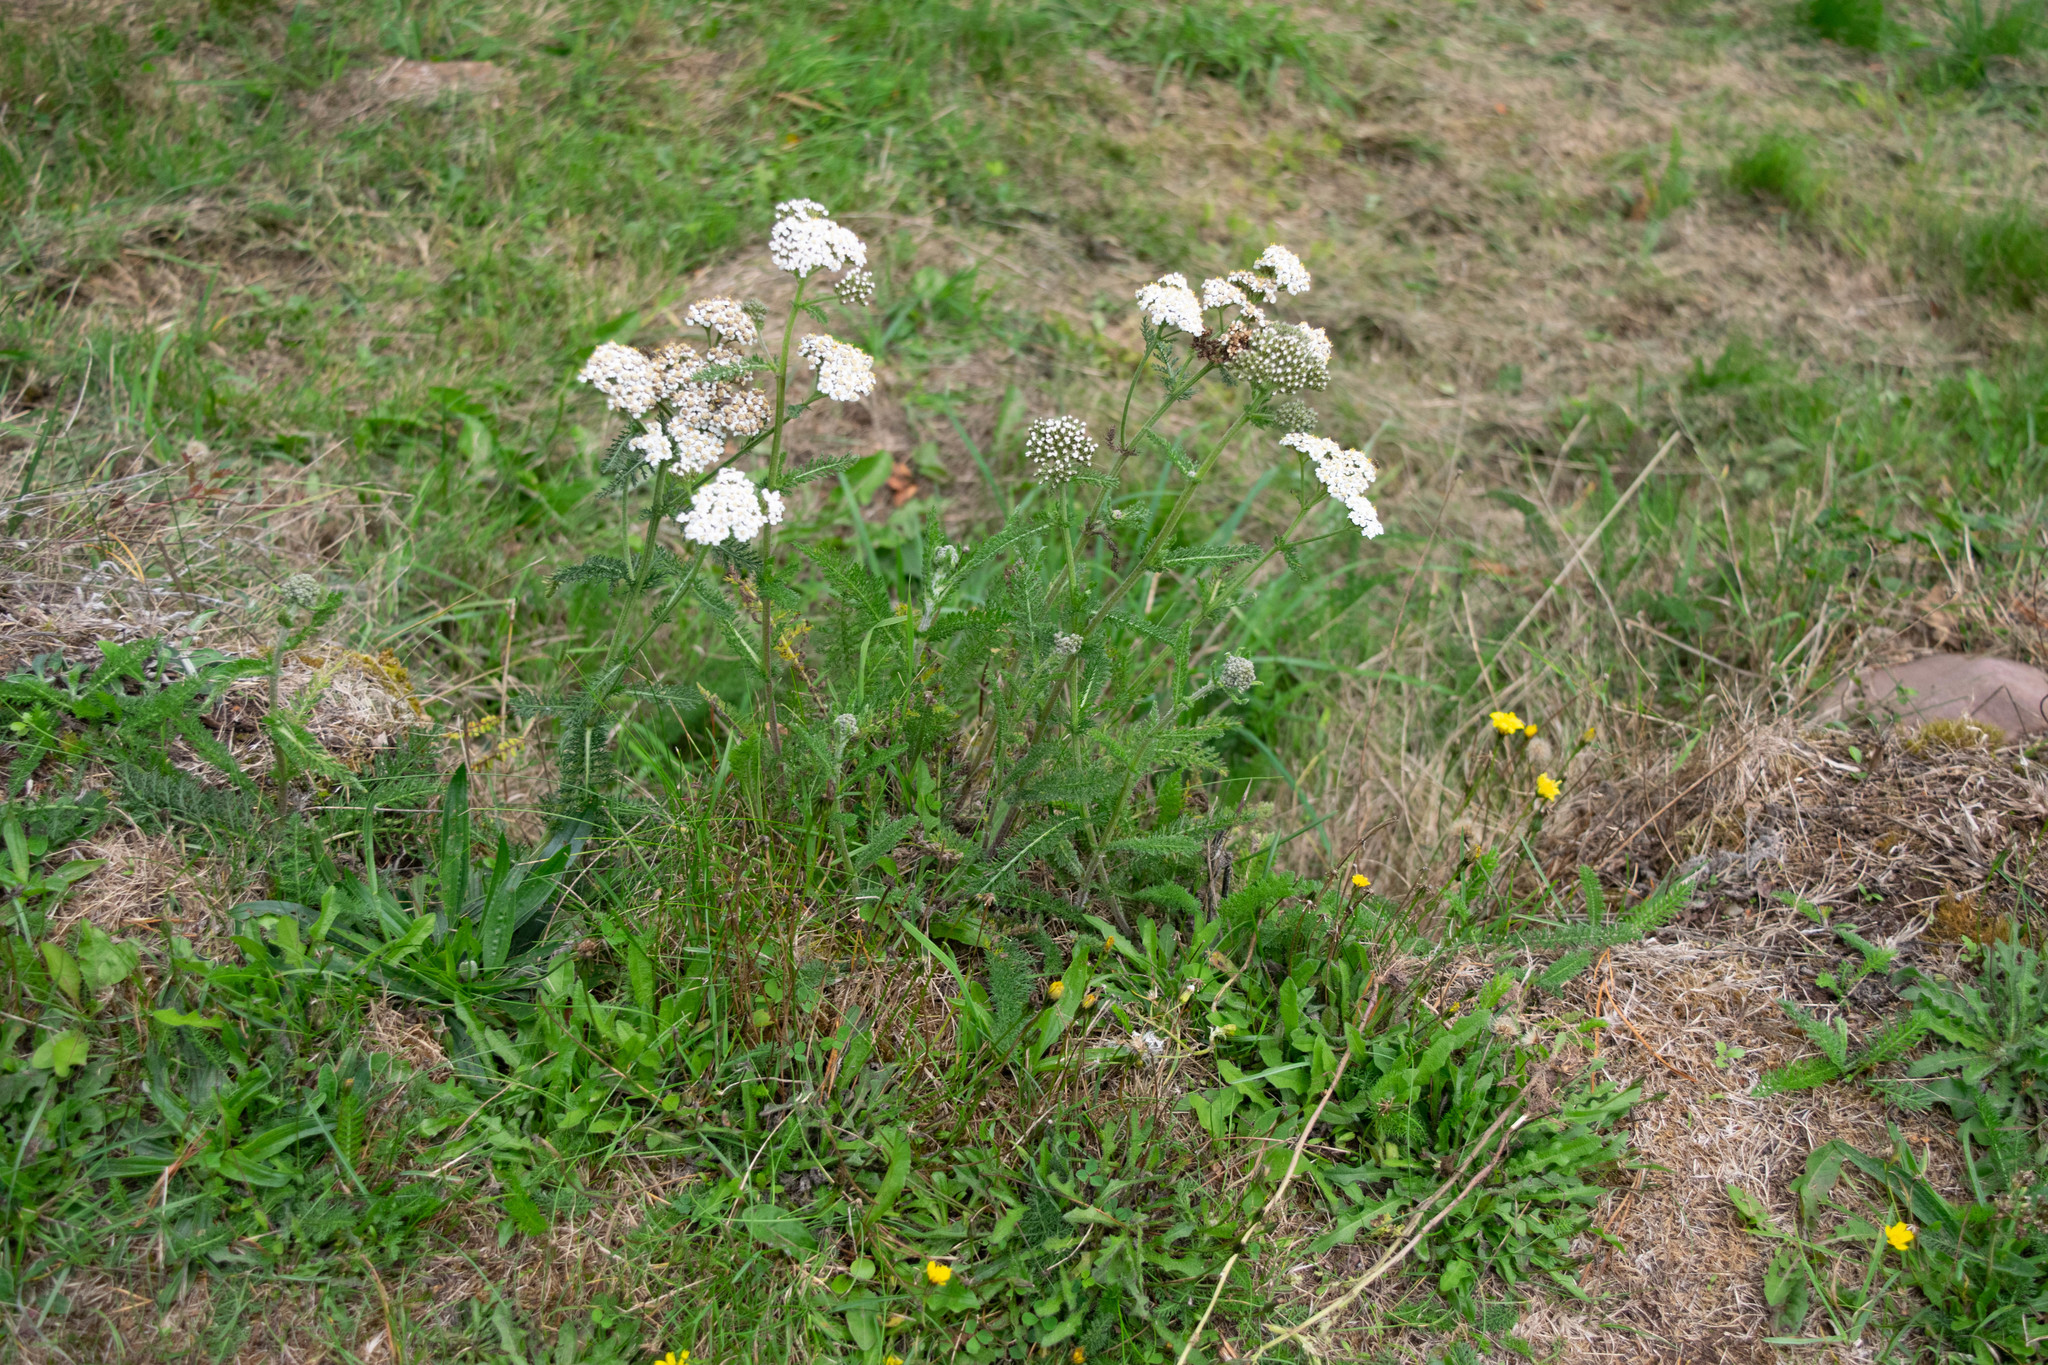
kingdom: Plantae
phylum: Tracheophyta
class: Magnoliopsida
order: Asterales
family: Asteraceae
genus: Achillea
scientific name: Achillea millefolium
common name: Yarrow
